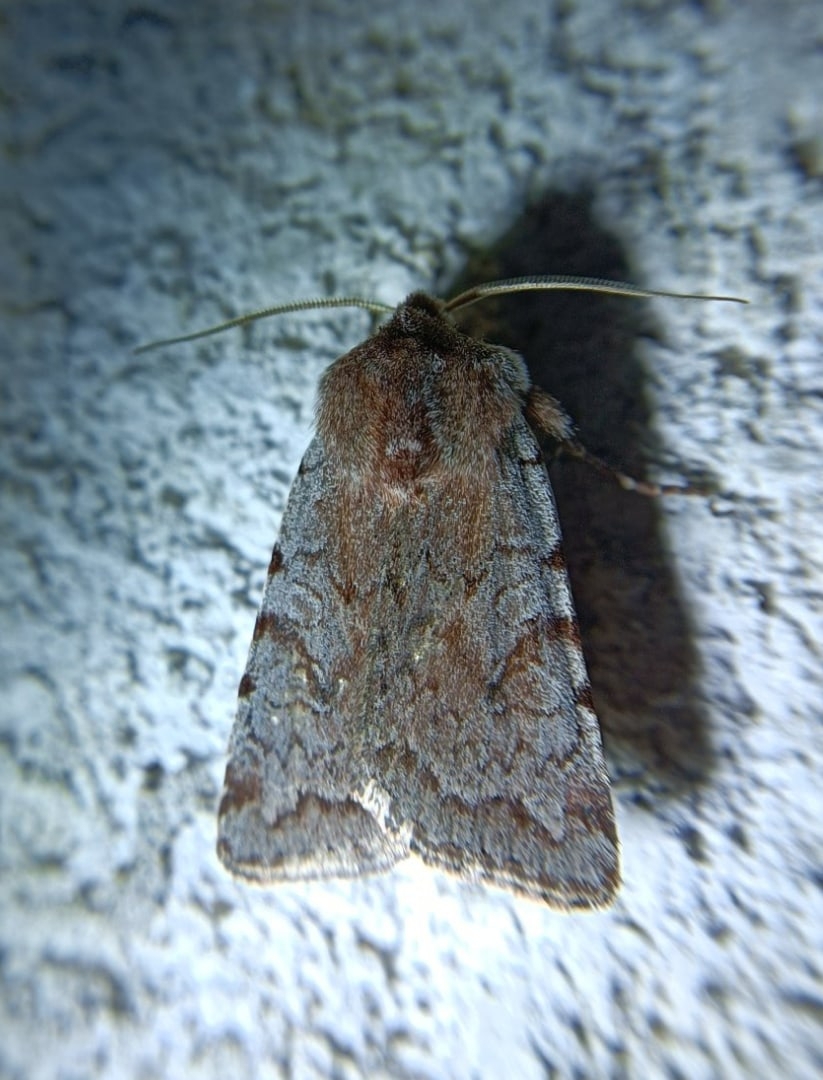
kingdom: Animalia
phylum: Arthropoda
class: Insecta
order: Lepidoptera
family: Noctuidae
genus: Cerastis
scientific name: Cerastis rubricosa
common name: Red chestnut
